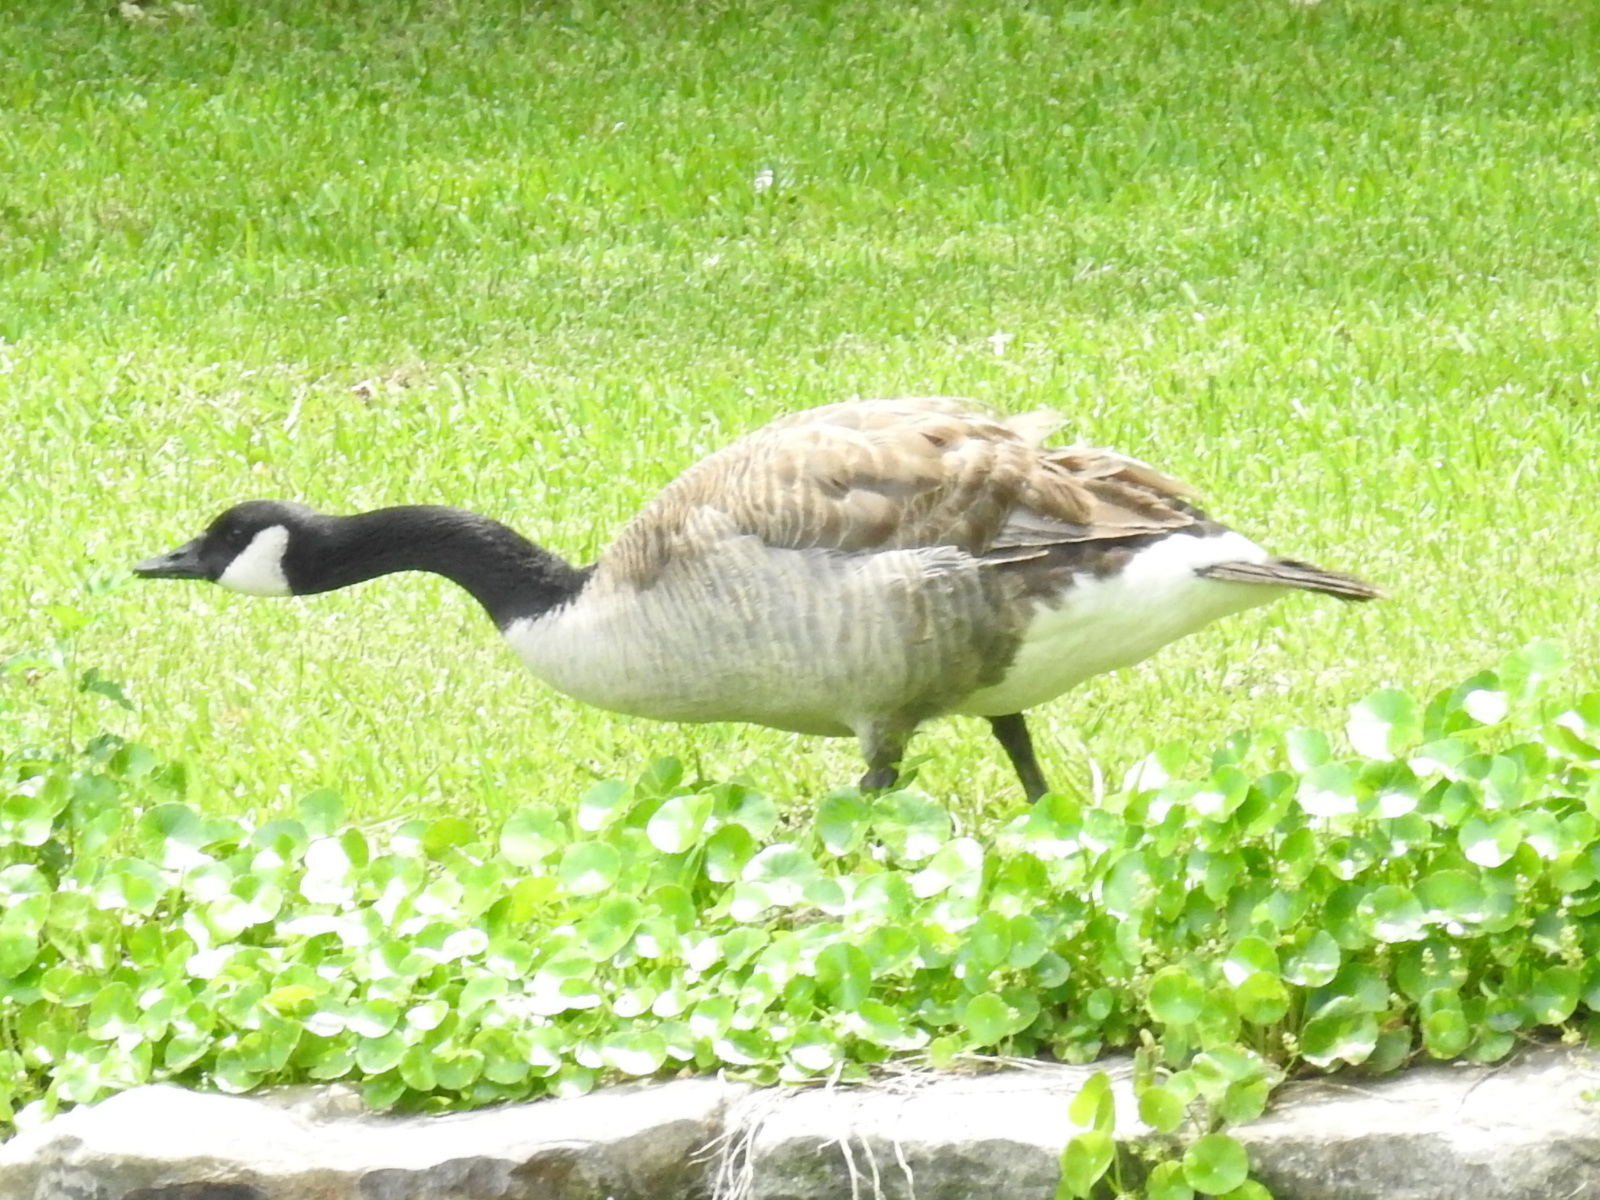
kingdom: Animalia
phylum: Chordata
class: Aves
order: Anseriformes
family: Anatidae
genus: Branta
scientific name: Branta canadensis
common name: Canada goose
